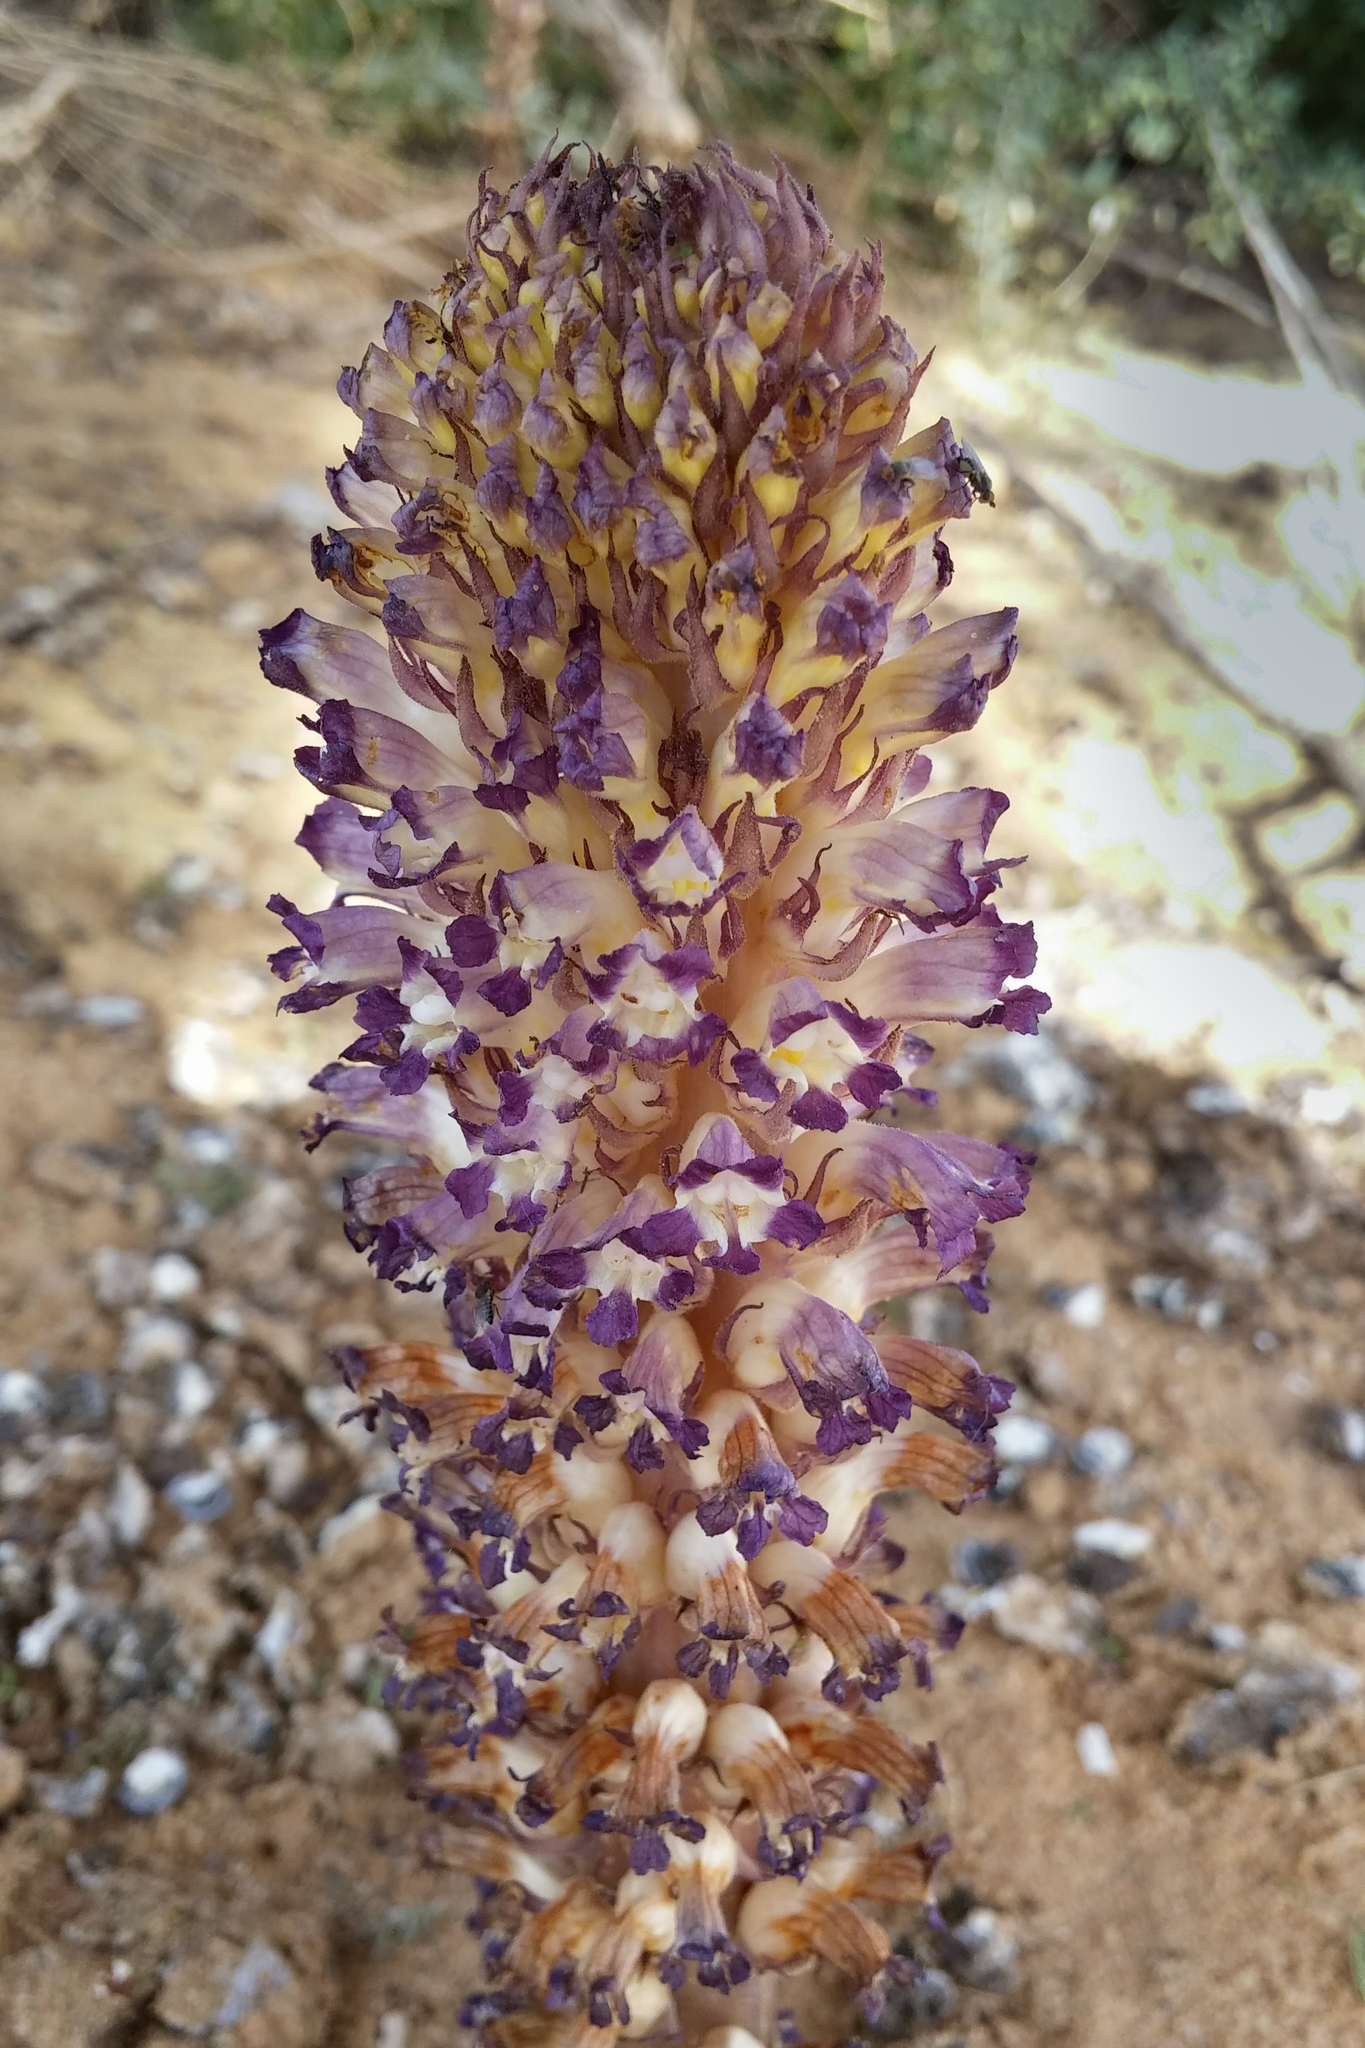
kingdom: Plantae
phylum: Tracheophyta
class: Magnoliopsida
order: Lamiales
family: Orobanchaceae
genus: Orobanche
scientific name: Orobanche cernua
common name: Australian broomrape
